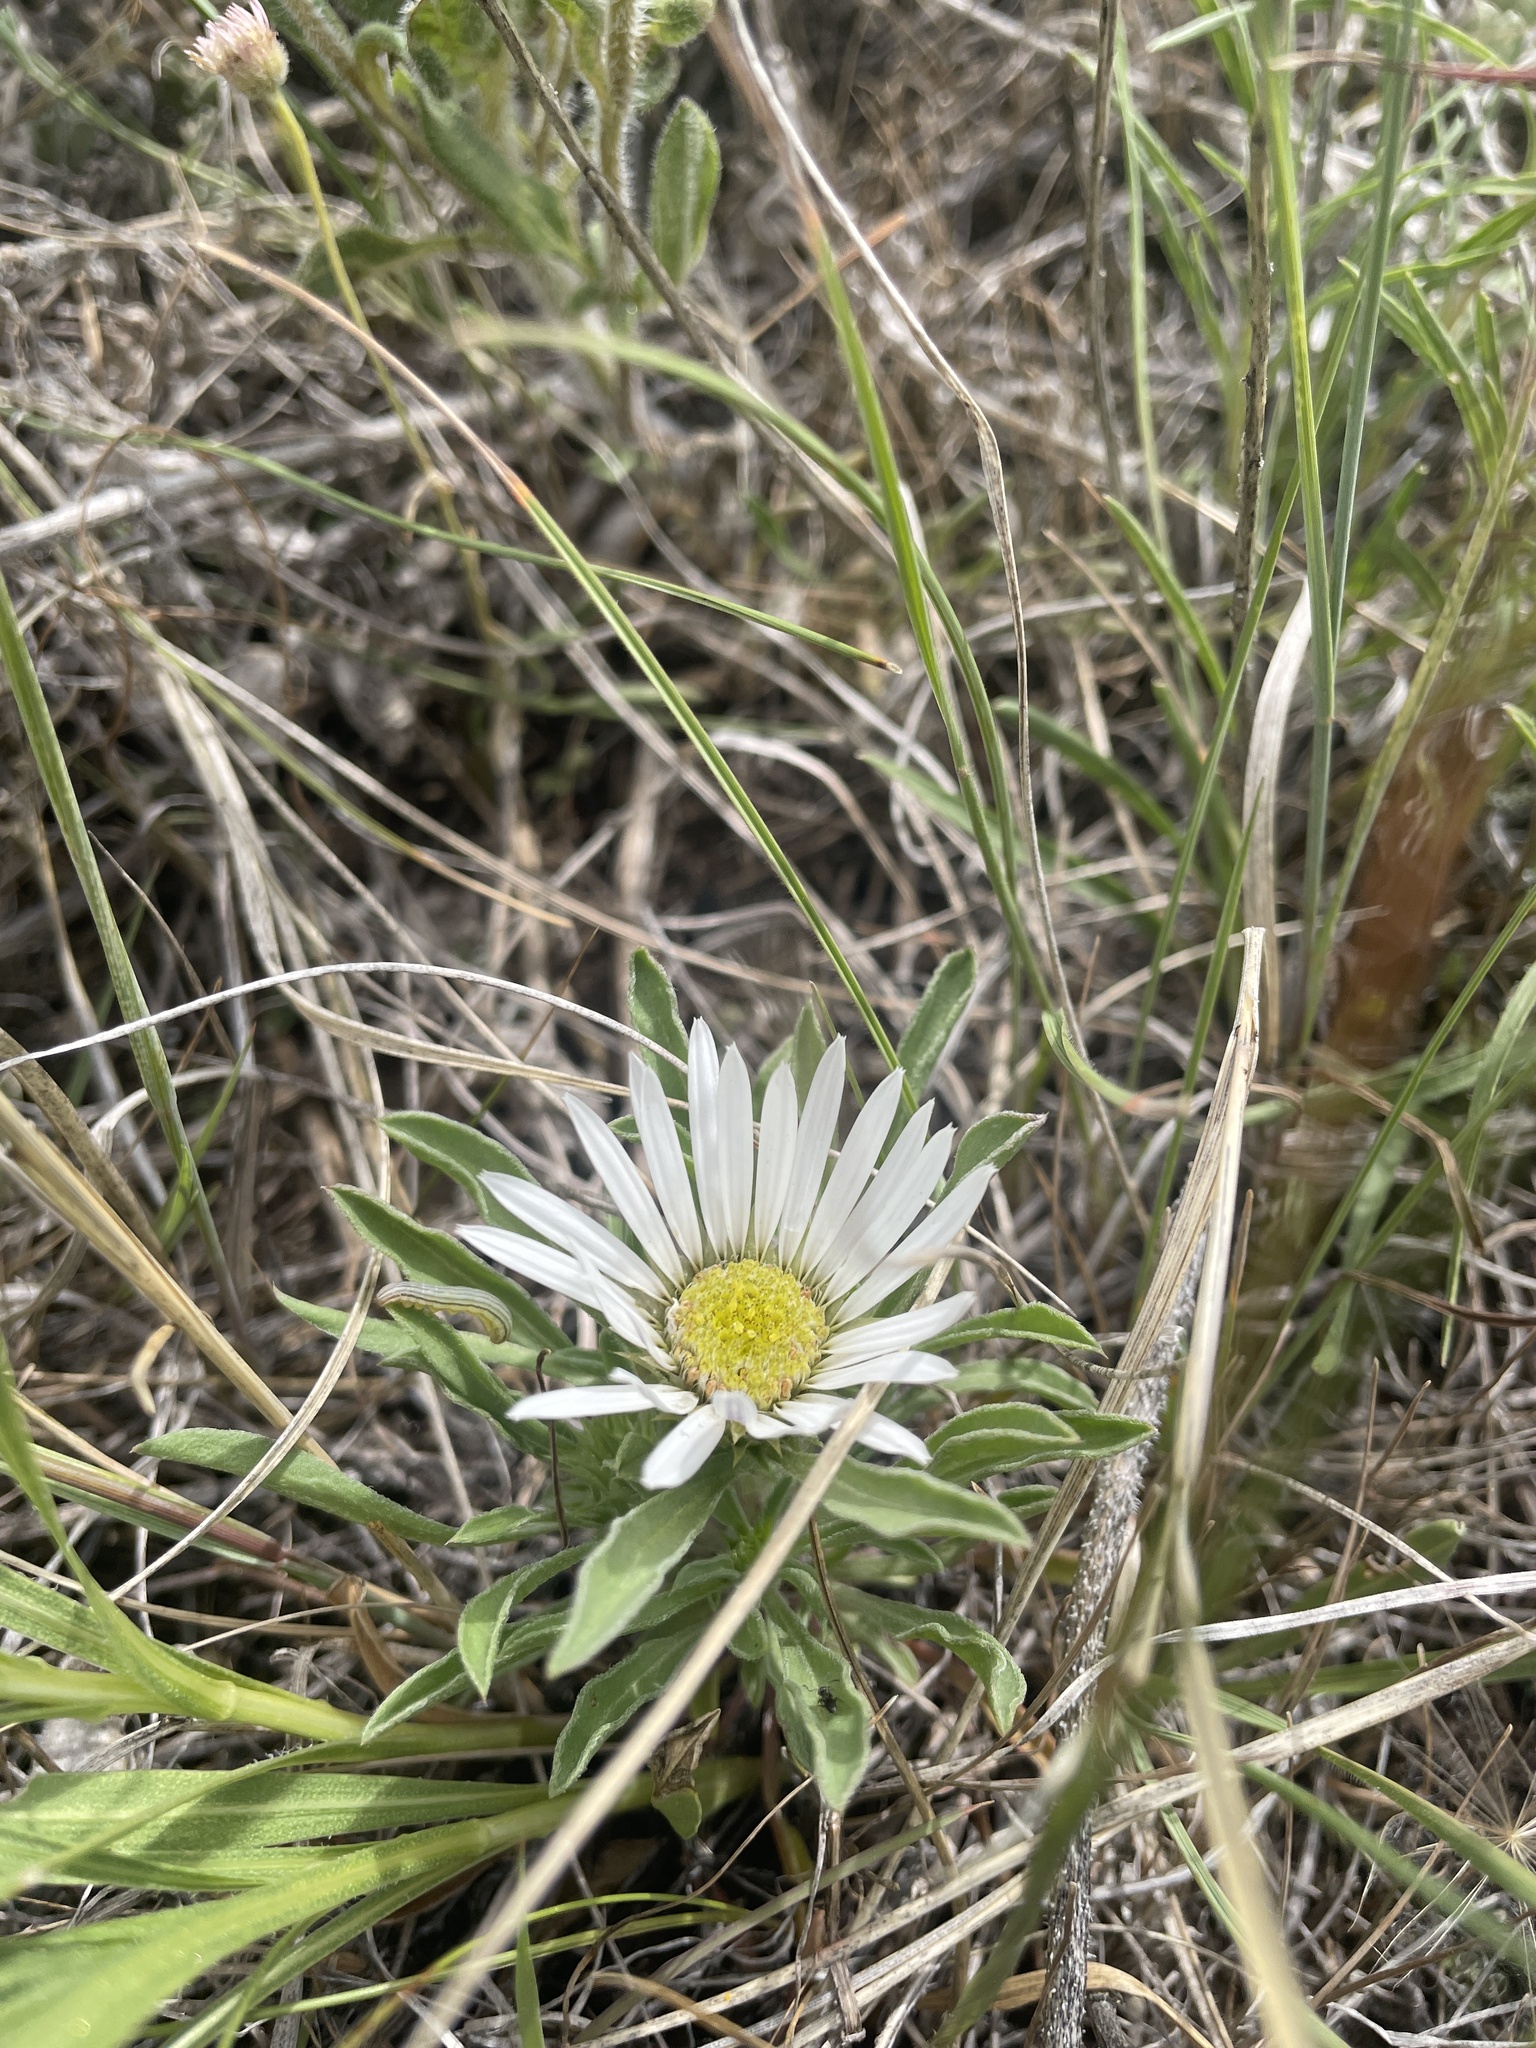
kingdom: Plantae
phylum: Tracheophyta
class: Magnoliopsida
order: Asterales
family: Asteraceae
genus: Townsendia
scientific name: Townsendia grandiflora
